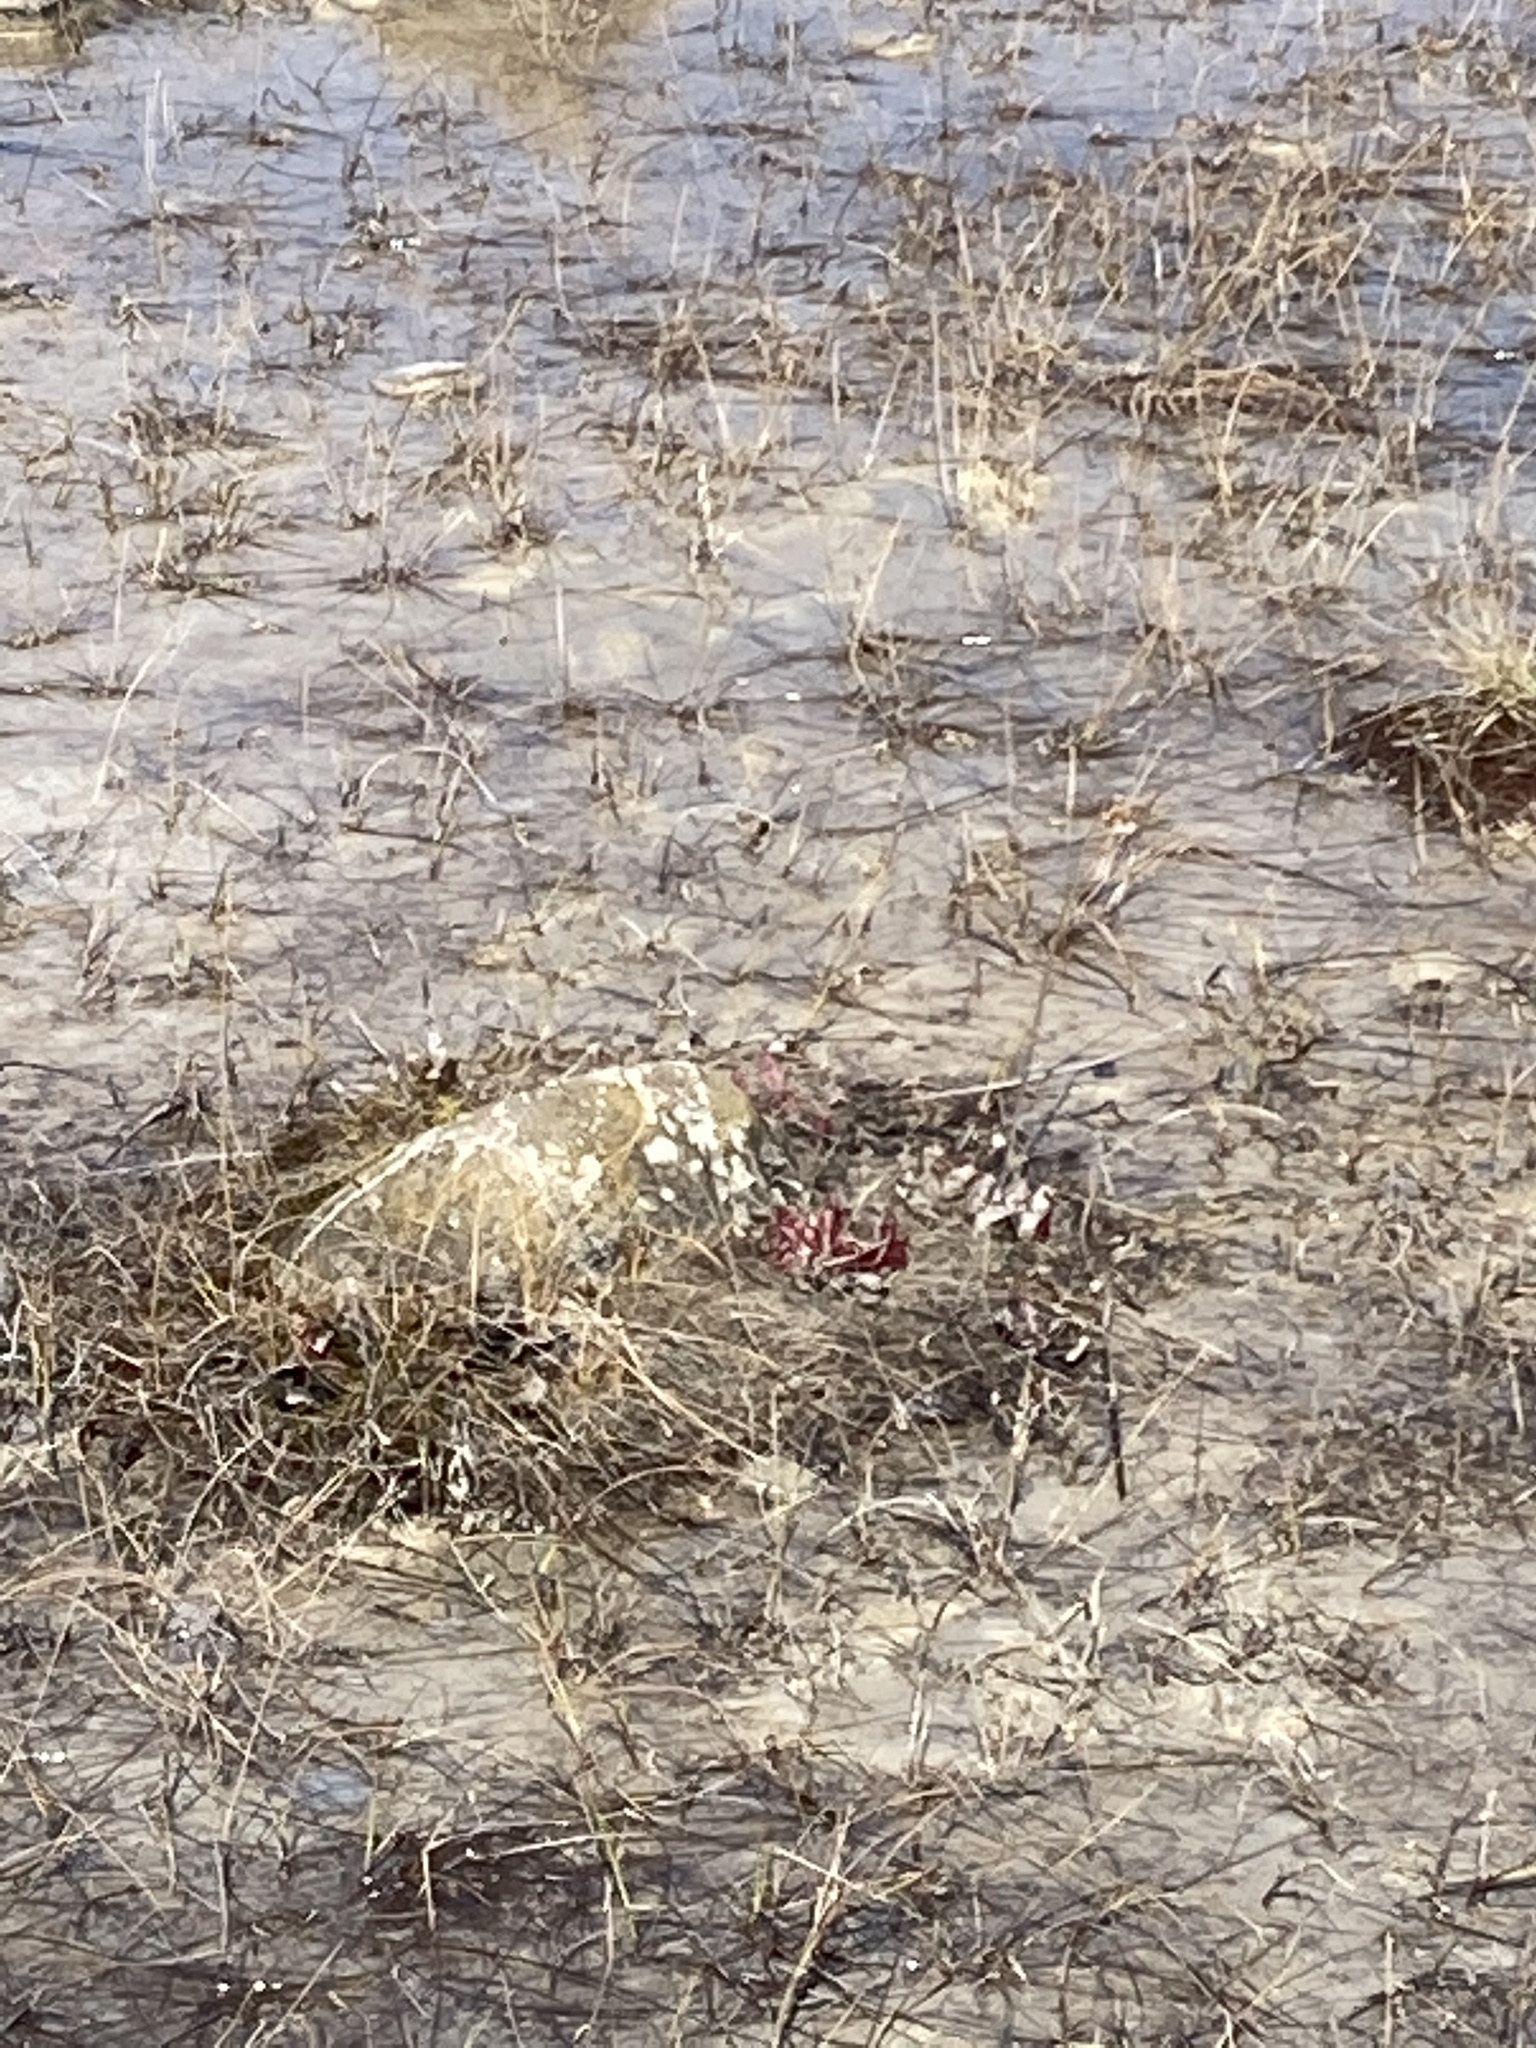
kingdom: Plantae
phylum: Tracheophyta
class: Magnoliopsida
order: Ericales
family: Sarraceniaceae
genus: Sarracenia
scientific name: Sarracenia purpurea
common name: Pitcherplant
